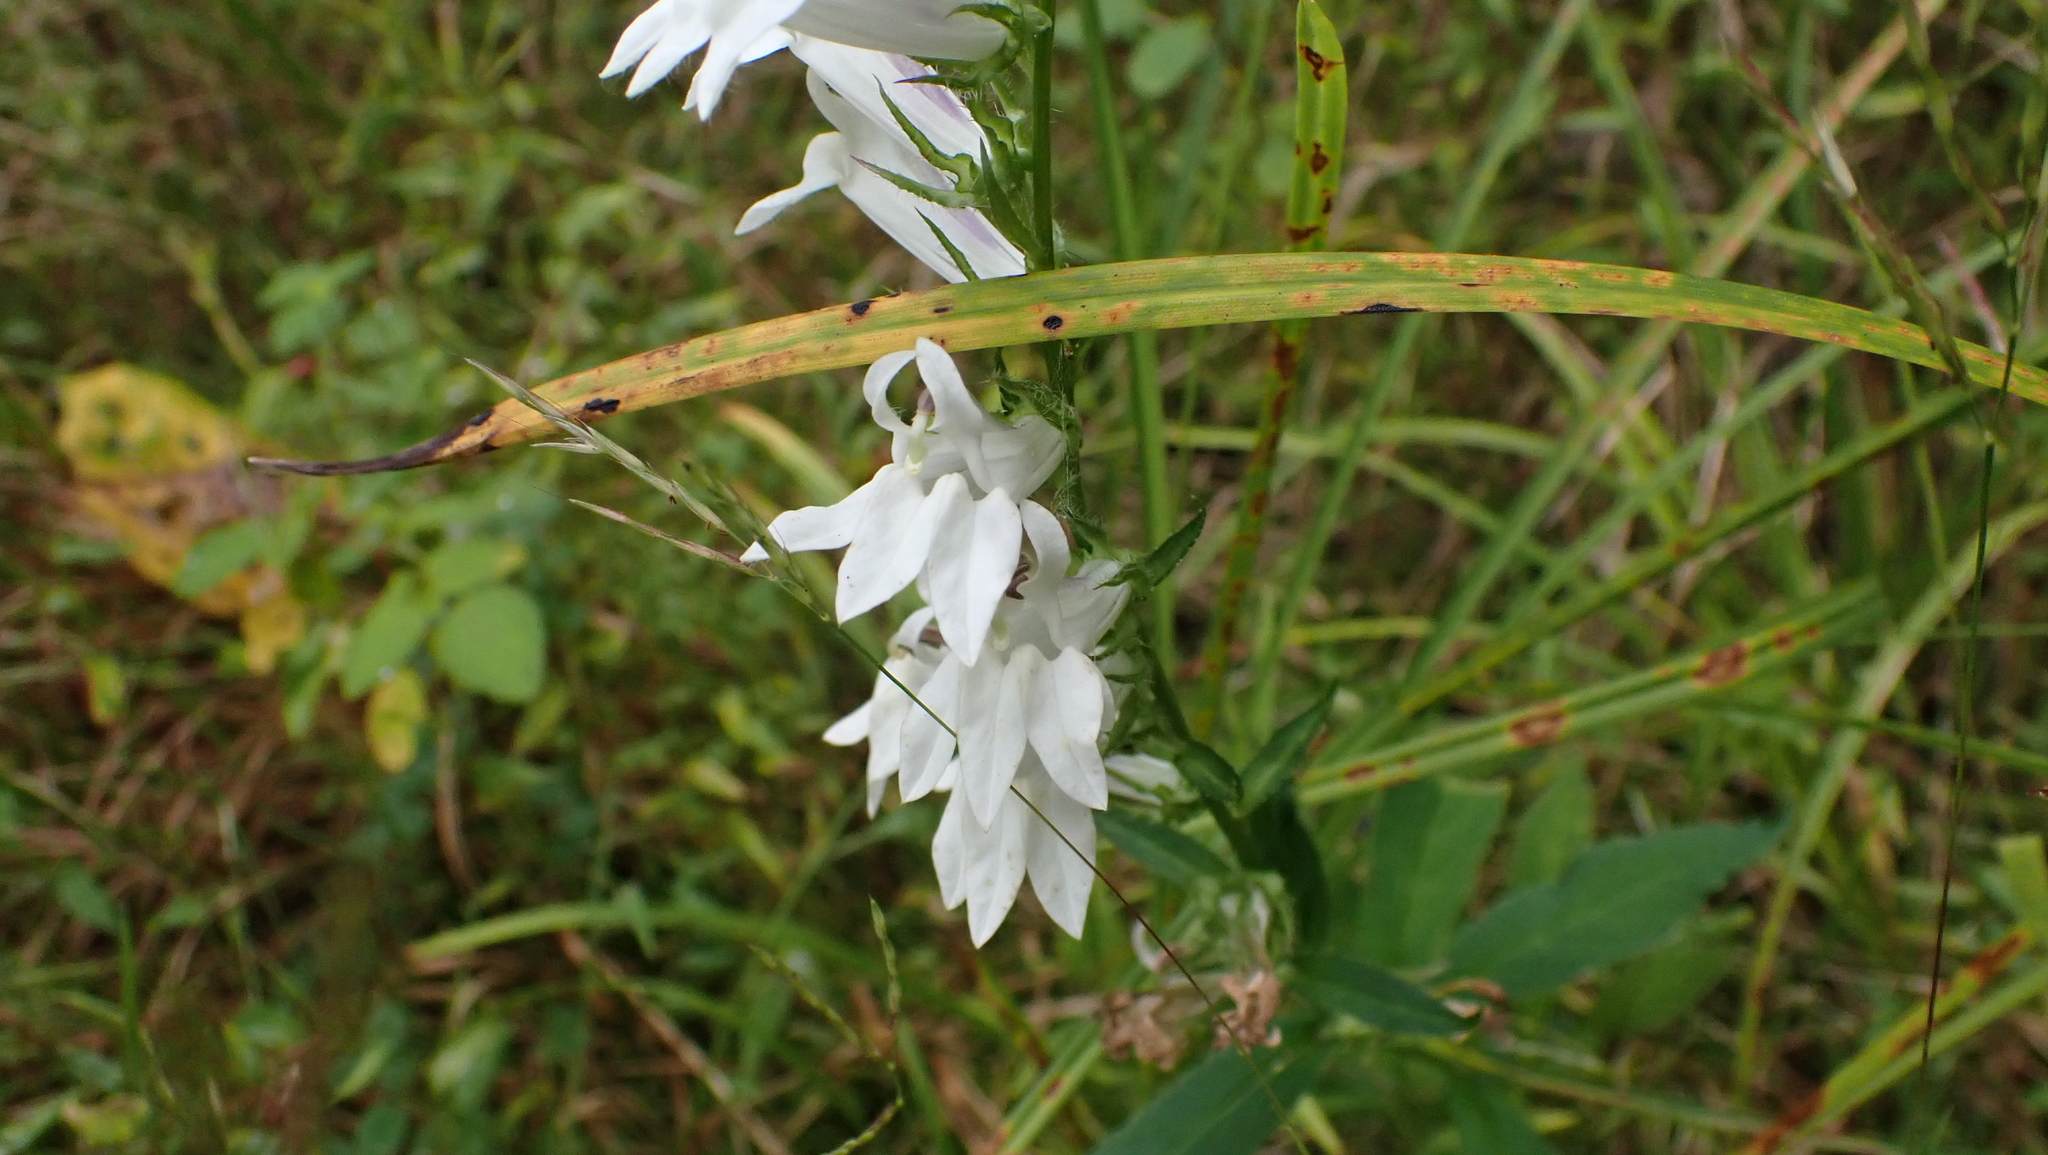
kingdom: Plantae
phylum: Tracheophyta
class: Magnoliopsida
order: Asterales
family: Campanulaceae
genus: Lobelia
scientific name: Lobelia siphilitica
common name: Great lobelia
